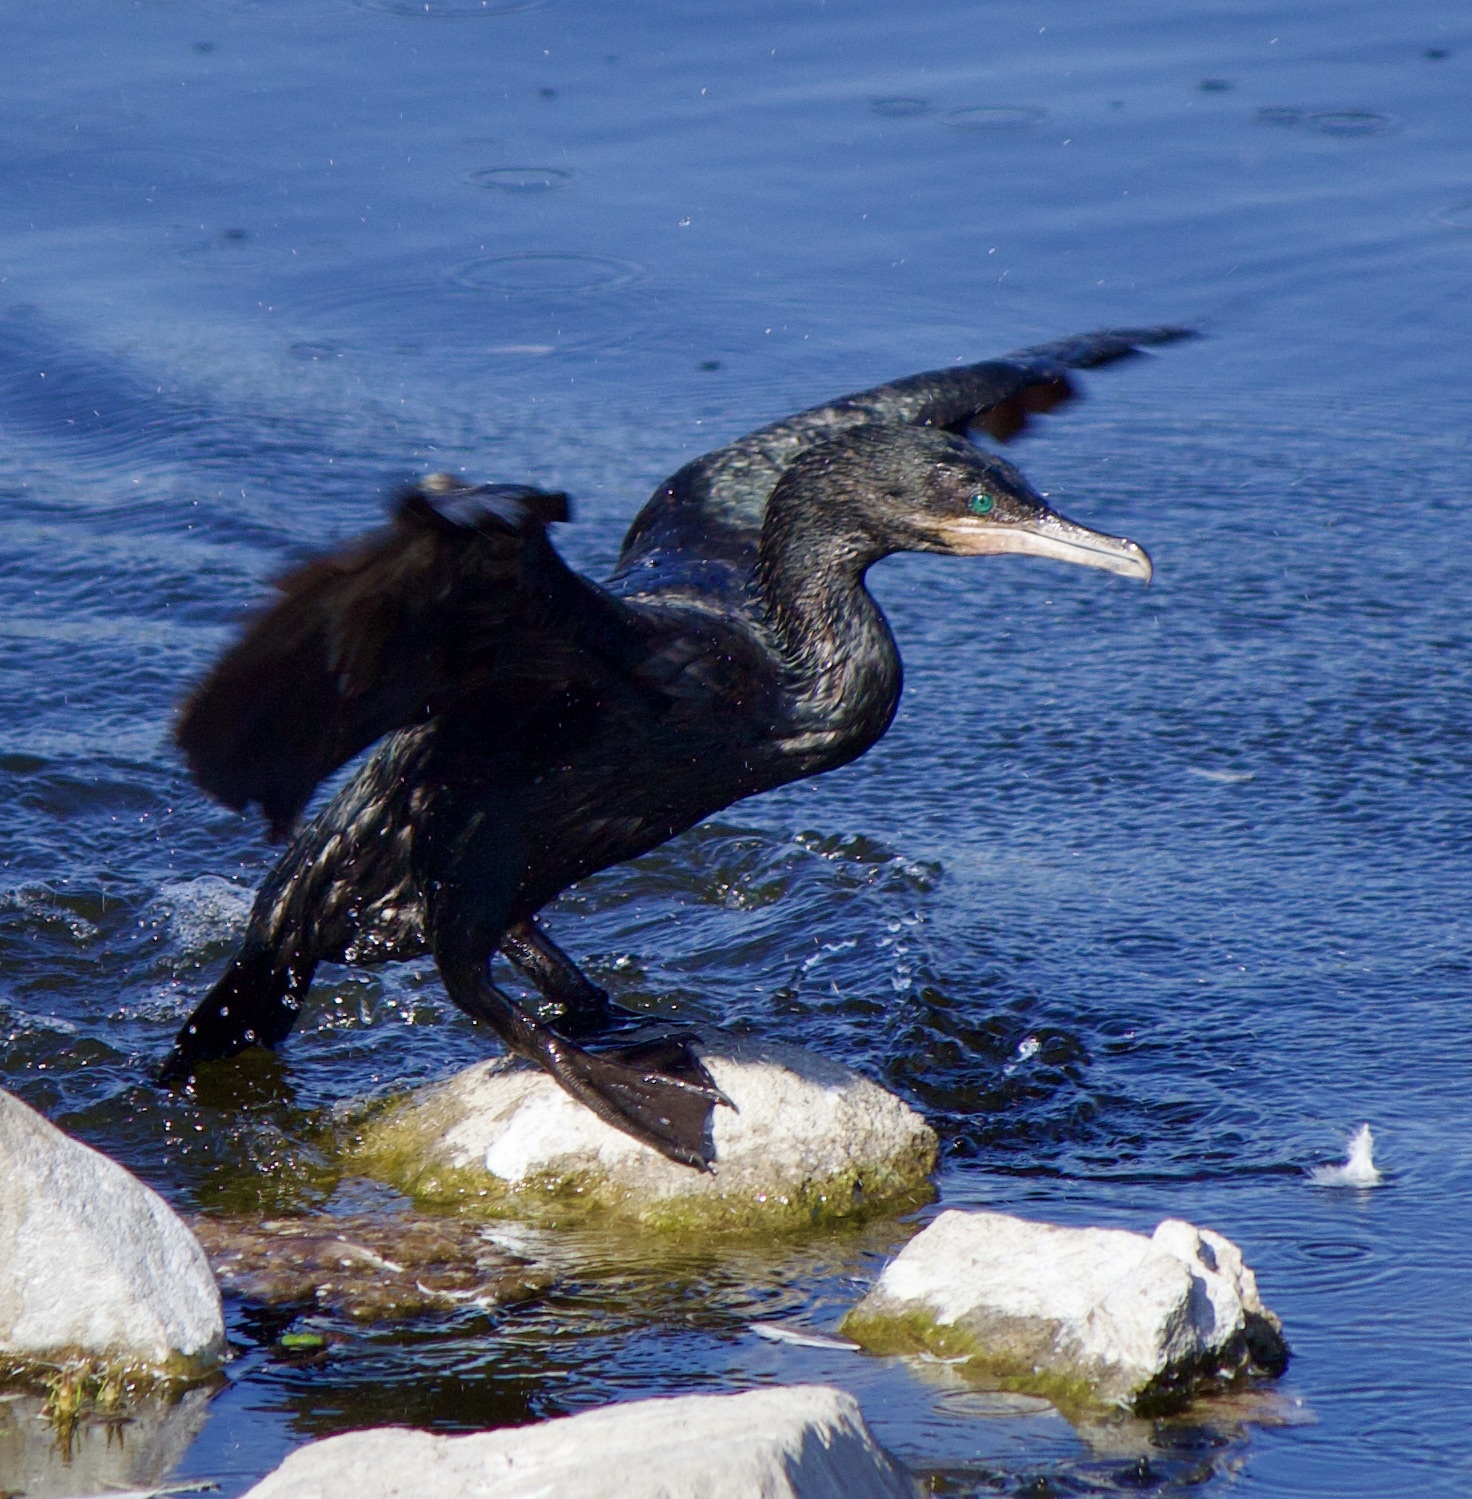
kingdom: Animalia
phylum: Chordata
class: Aves
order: Suliformes
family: Phalacrocoracidae
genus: Phalacrocorax
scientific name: Phalacrocorax brasilianus
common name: Neotropic cormorant
